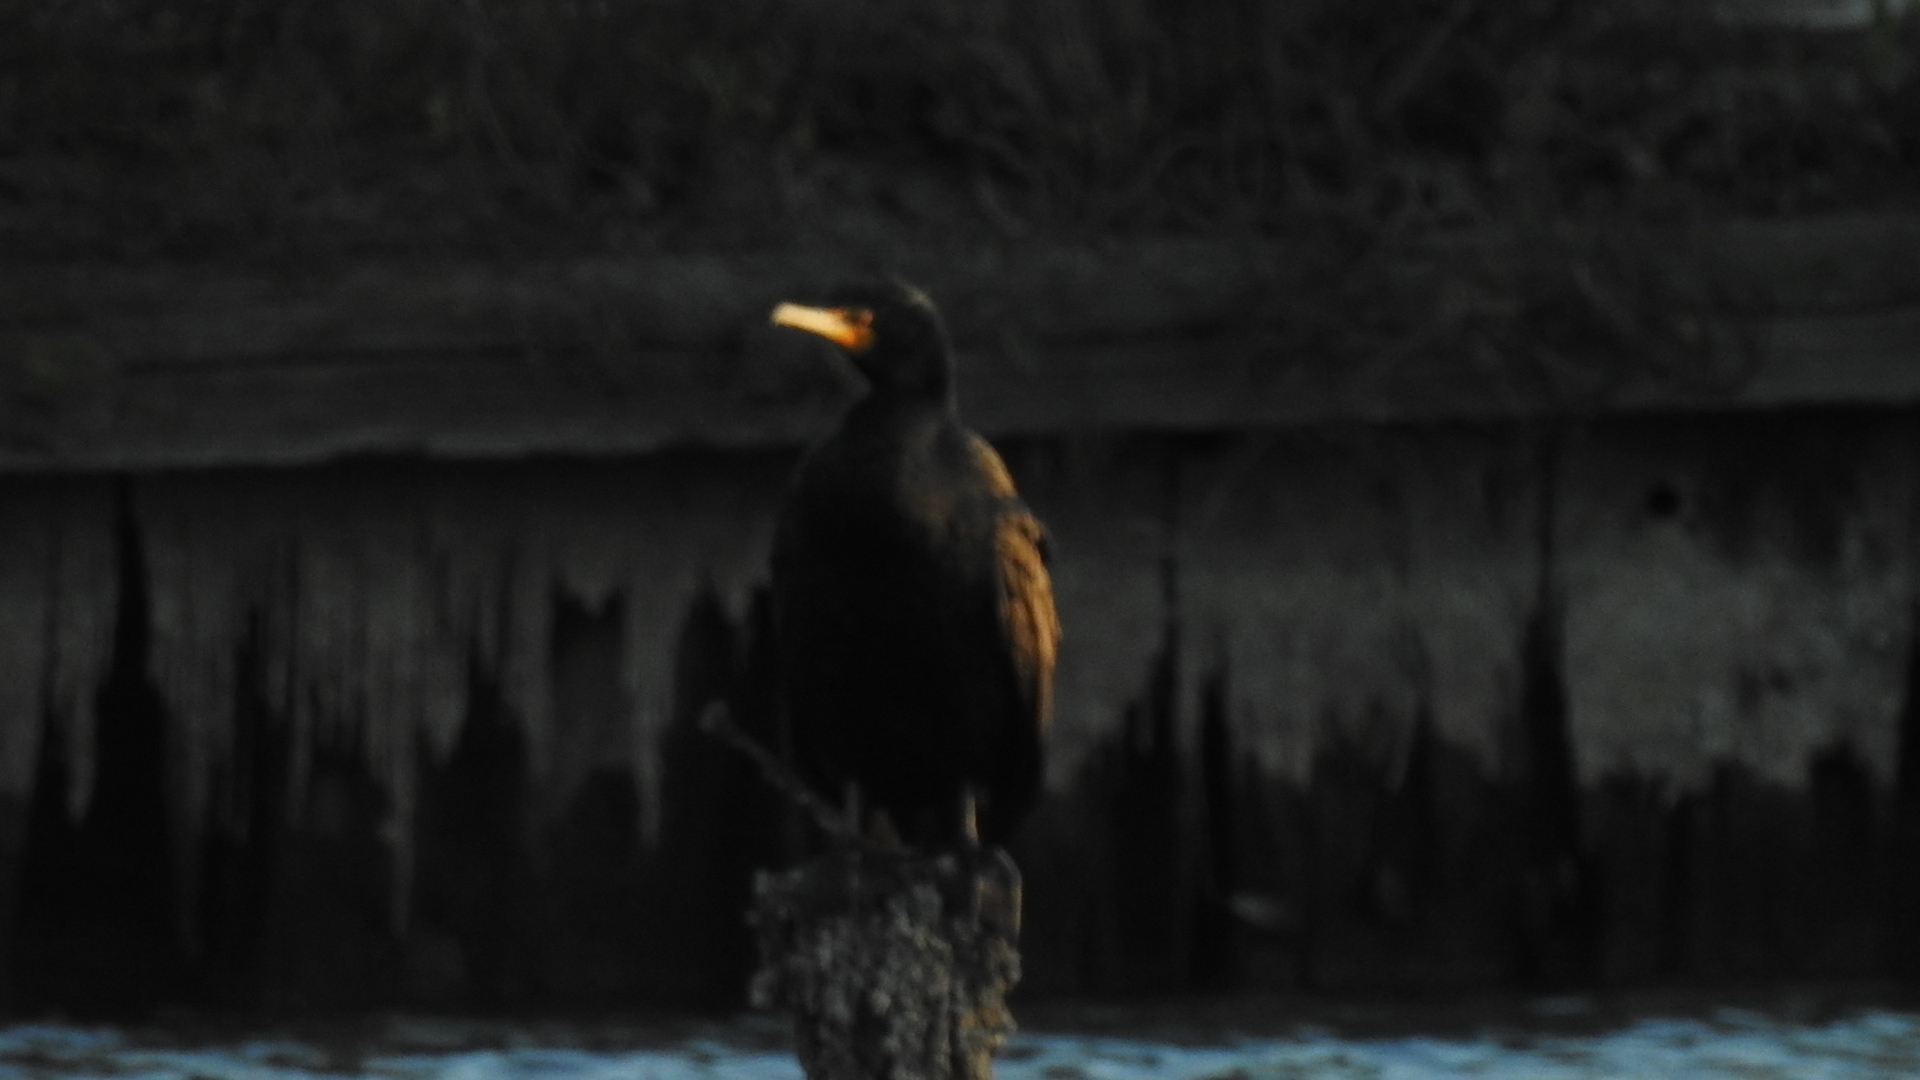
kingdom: Animalia
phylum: Chordata
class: Aves
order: Suliformes
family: Phalacrocoracidae
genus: Phalacrocorax
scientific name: Phalacrocorax auritus
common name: Double-crested cormorant
